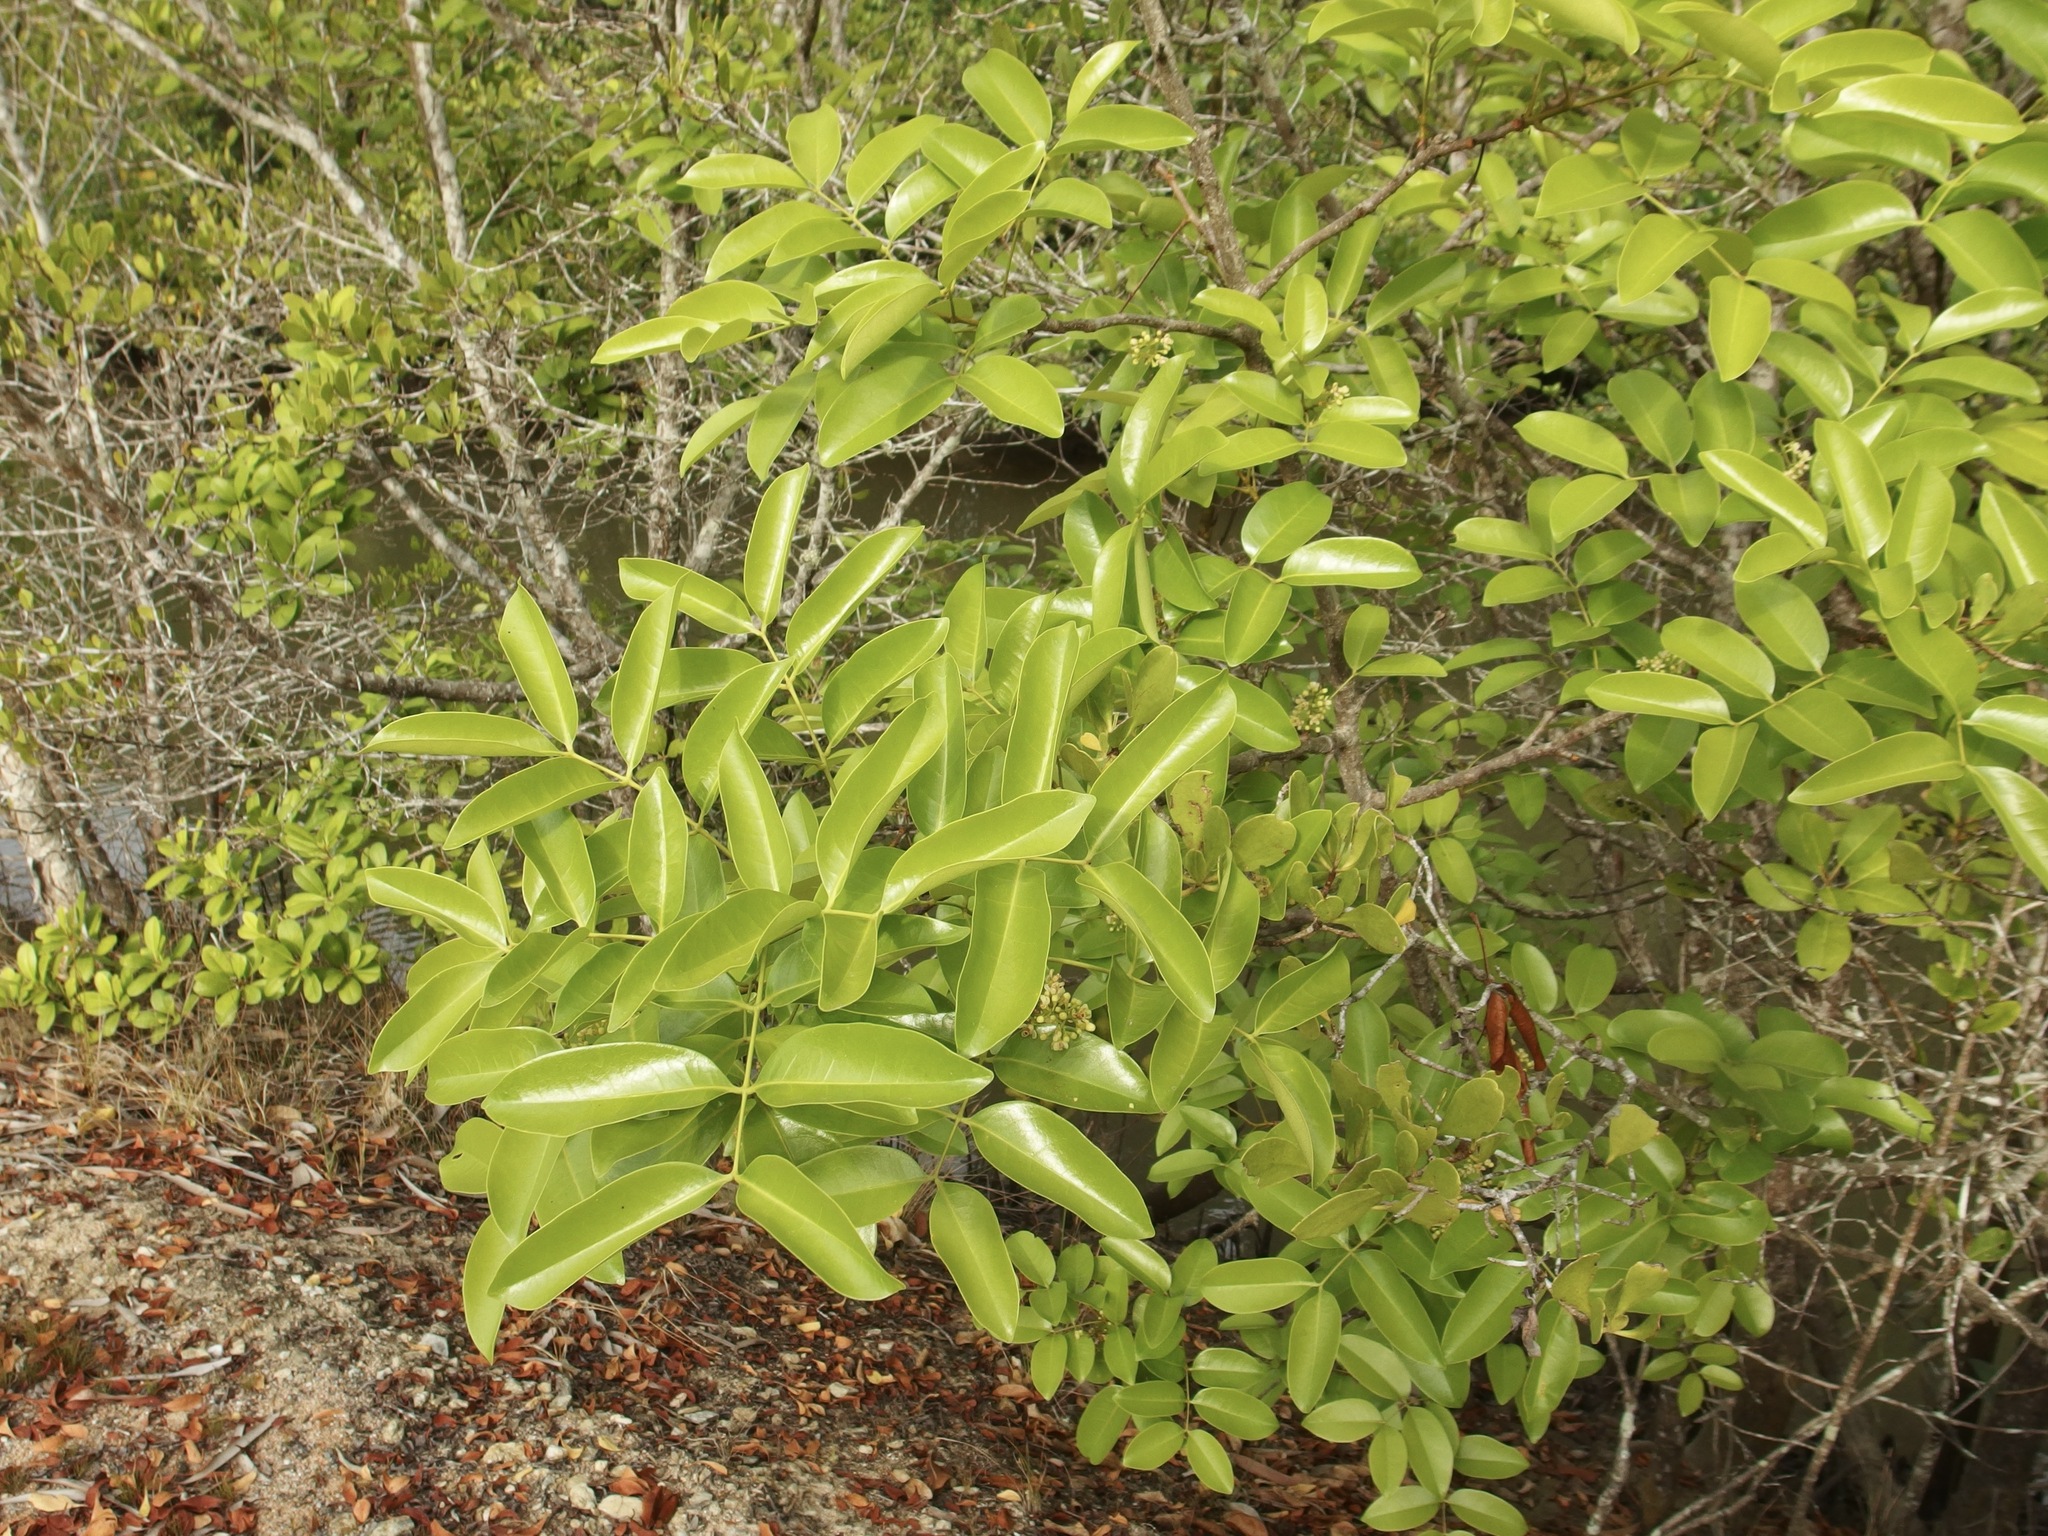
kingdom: Plantae
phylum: Tracheophyta
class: Magnoliopsida
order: Sapindales
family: Meliaceae
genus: Xylocarpus
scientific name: Xylocarpus moluccensis
